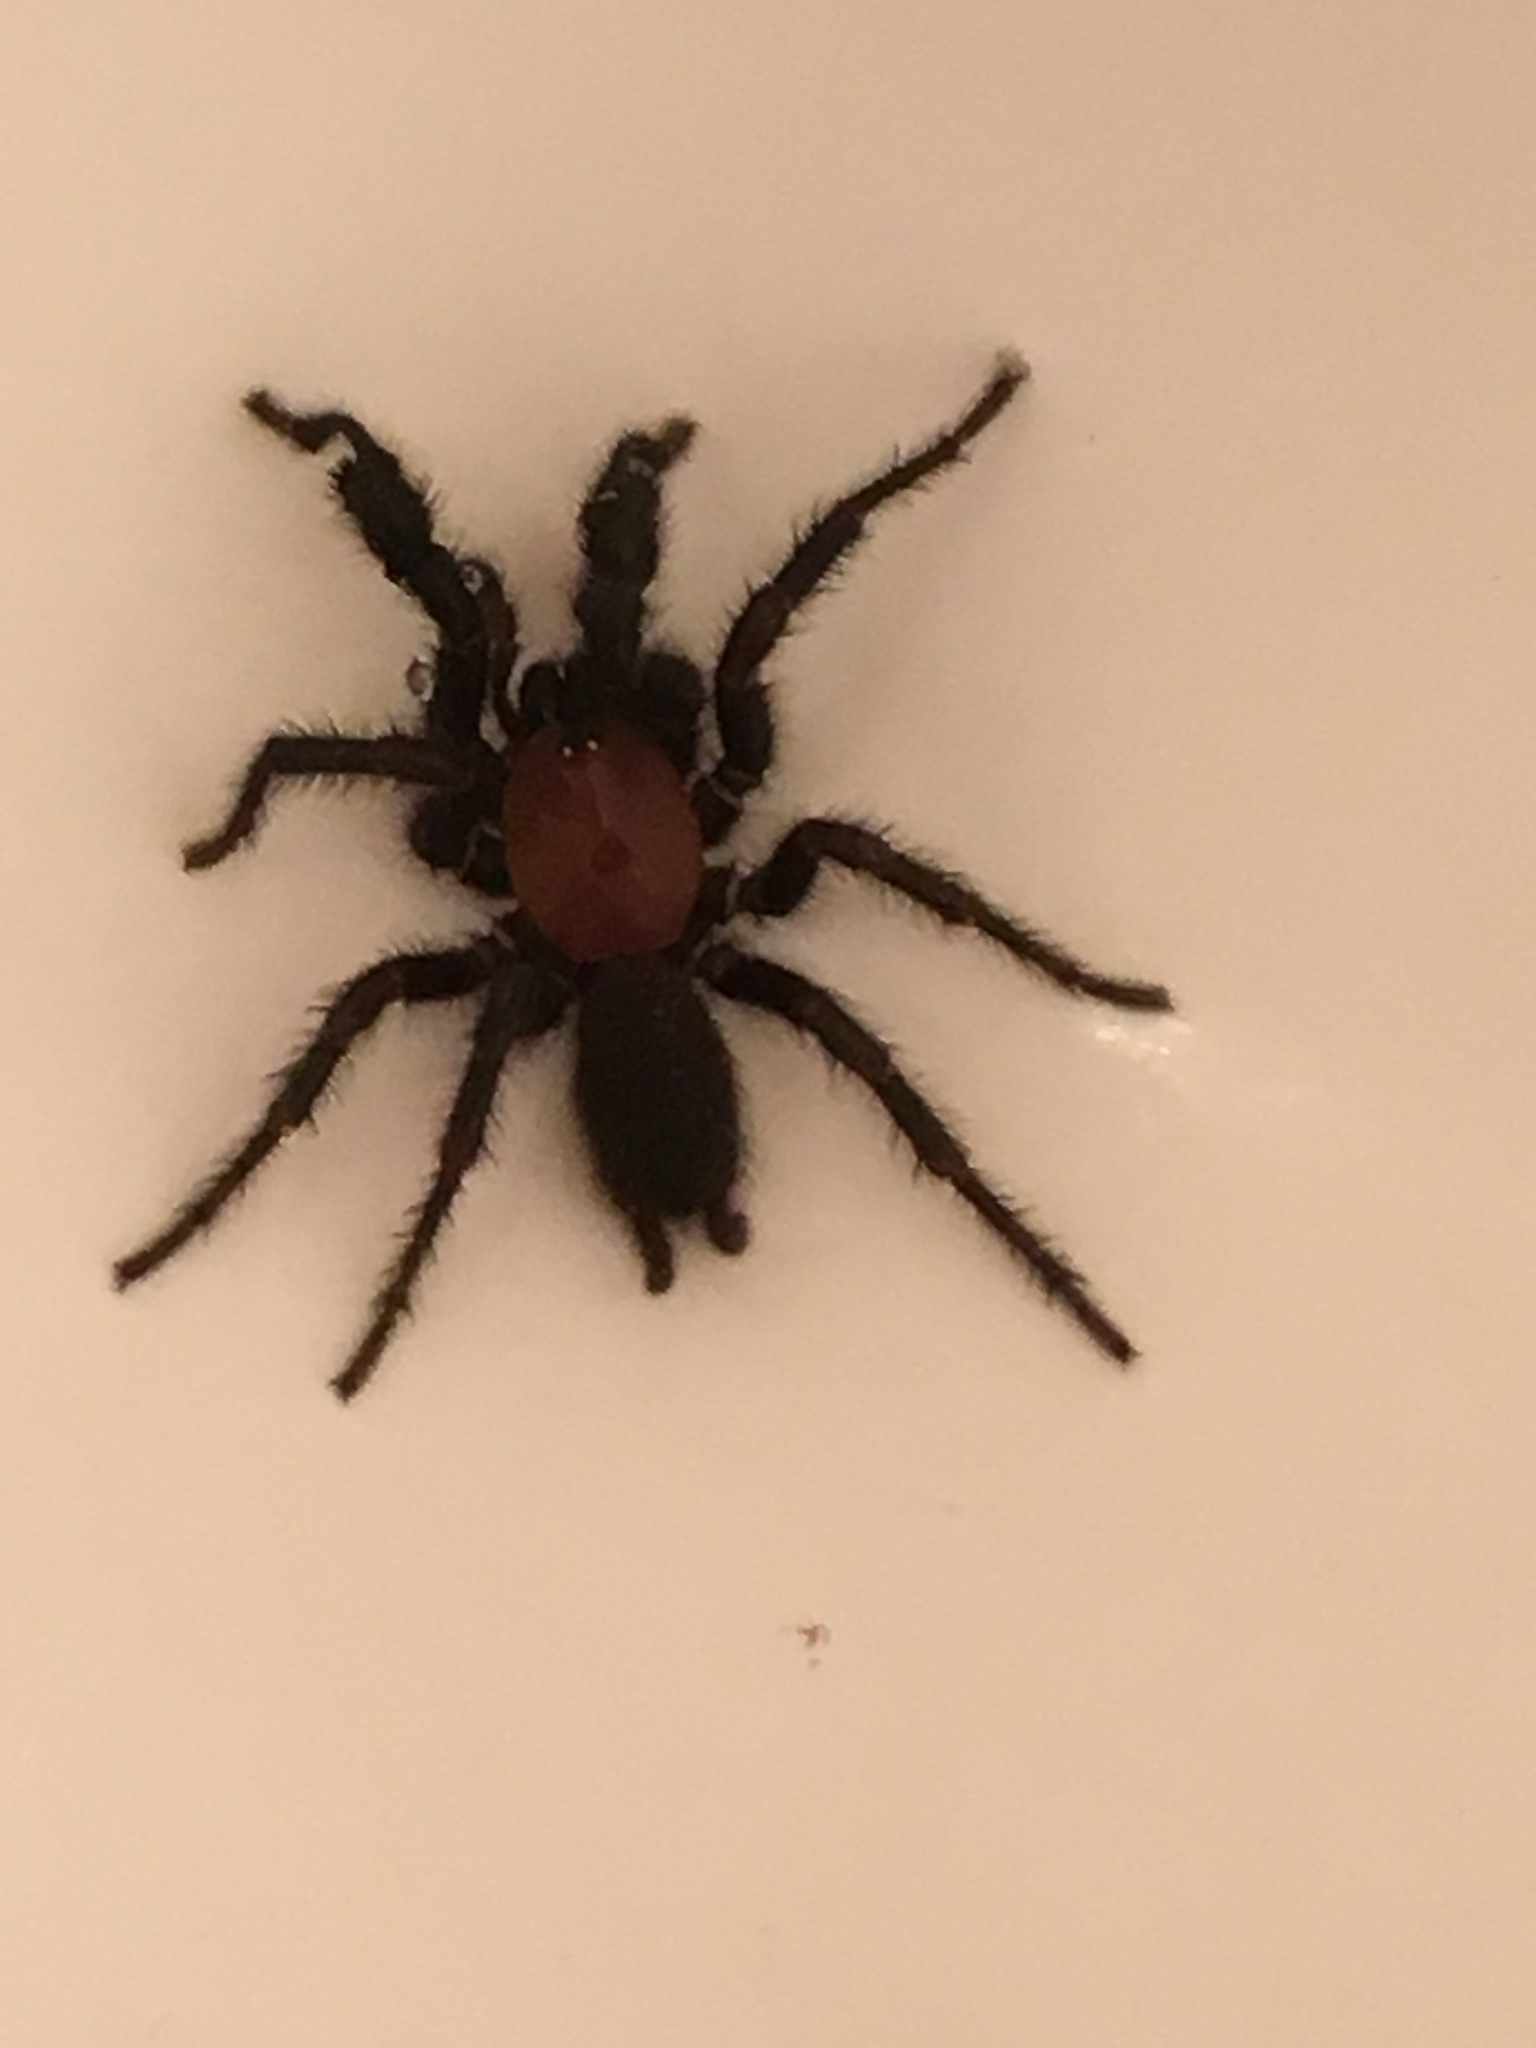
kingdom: Animalia
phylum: Arthropoda
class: Arachnida
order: Araneae
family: Porrhothelidae
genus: Porrhothele
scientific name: Porrhothele antipodiana
